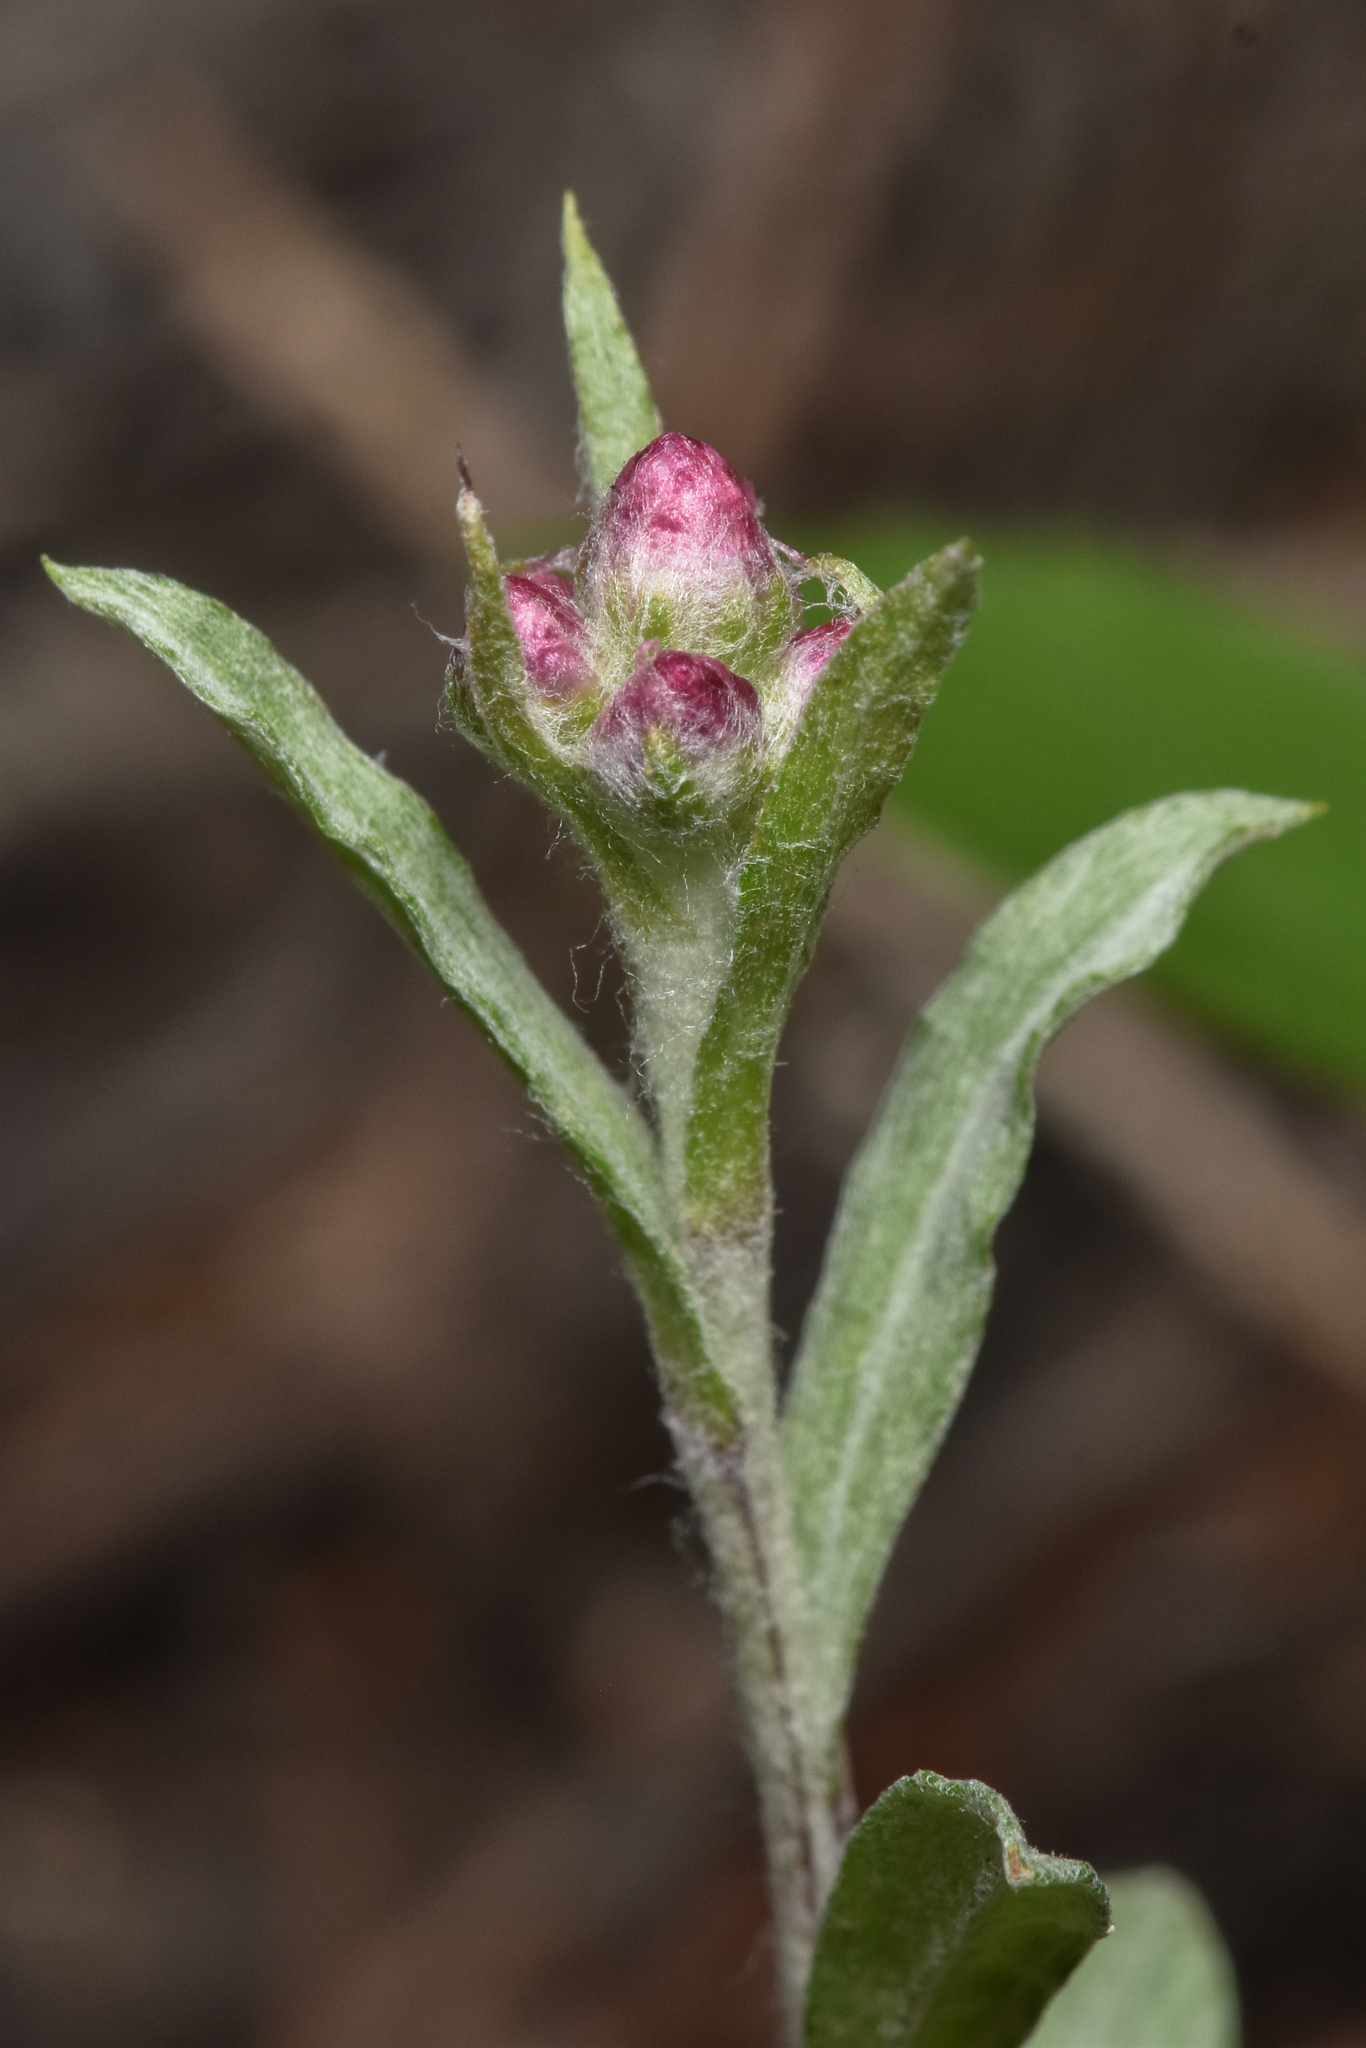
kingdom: Plantae
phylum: Tracheophyta
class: Magnoliopsida
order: Asterales
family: Asteraceae
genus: Antennaria
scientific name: Antennaria rosea
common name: Rosy pussytoes
